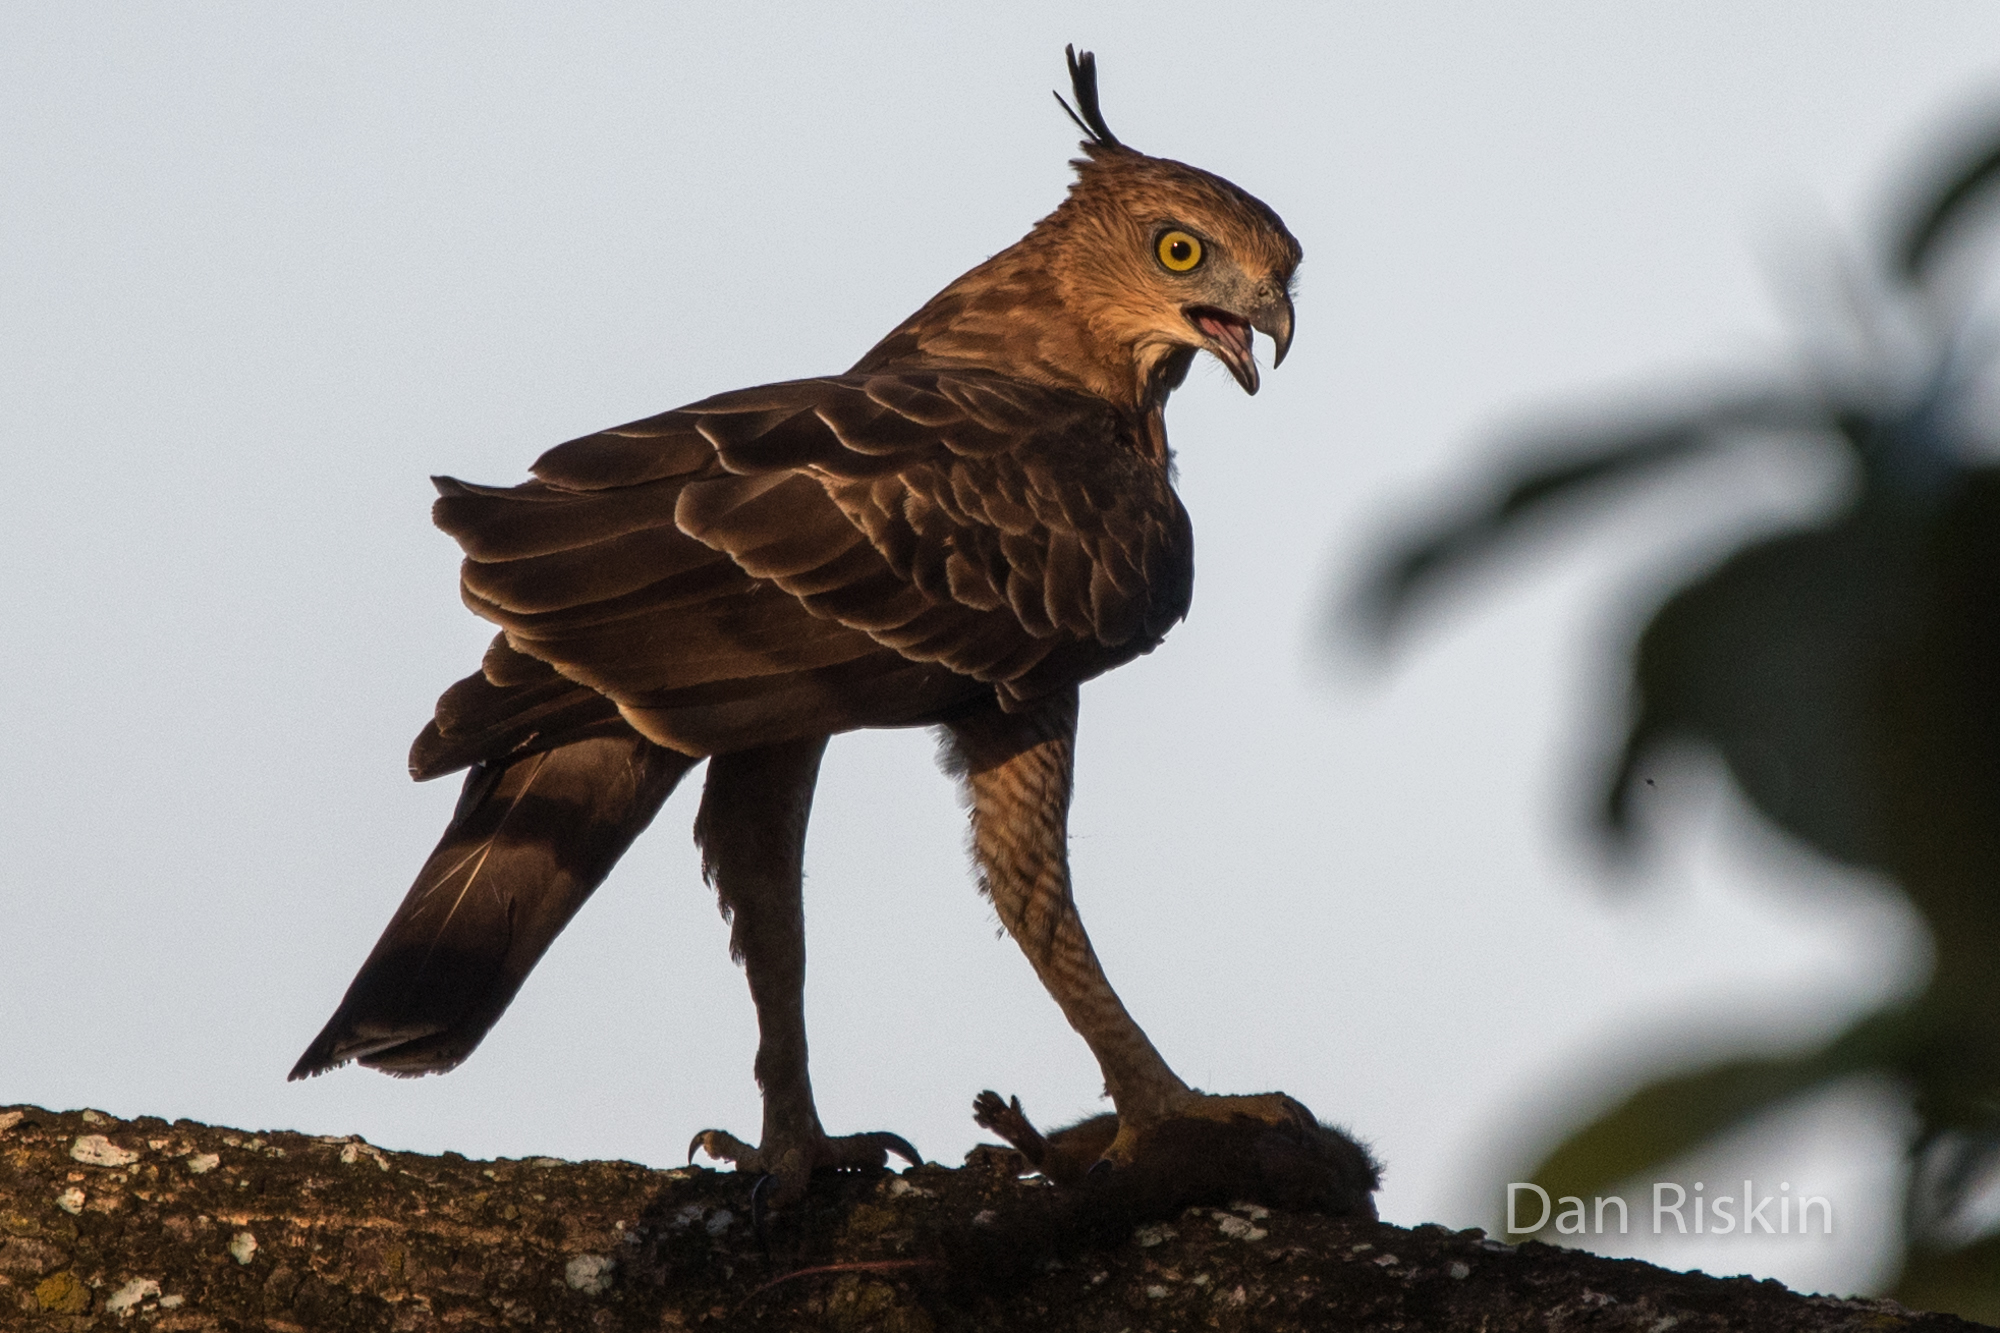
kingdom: Animalia
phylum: Chordata
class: Aves
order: Accipitriformes
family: Accipitridae
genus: Nisaetus
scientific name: Nisaetus nanus
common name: Wallace's hawk-eagle
